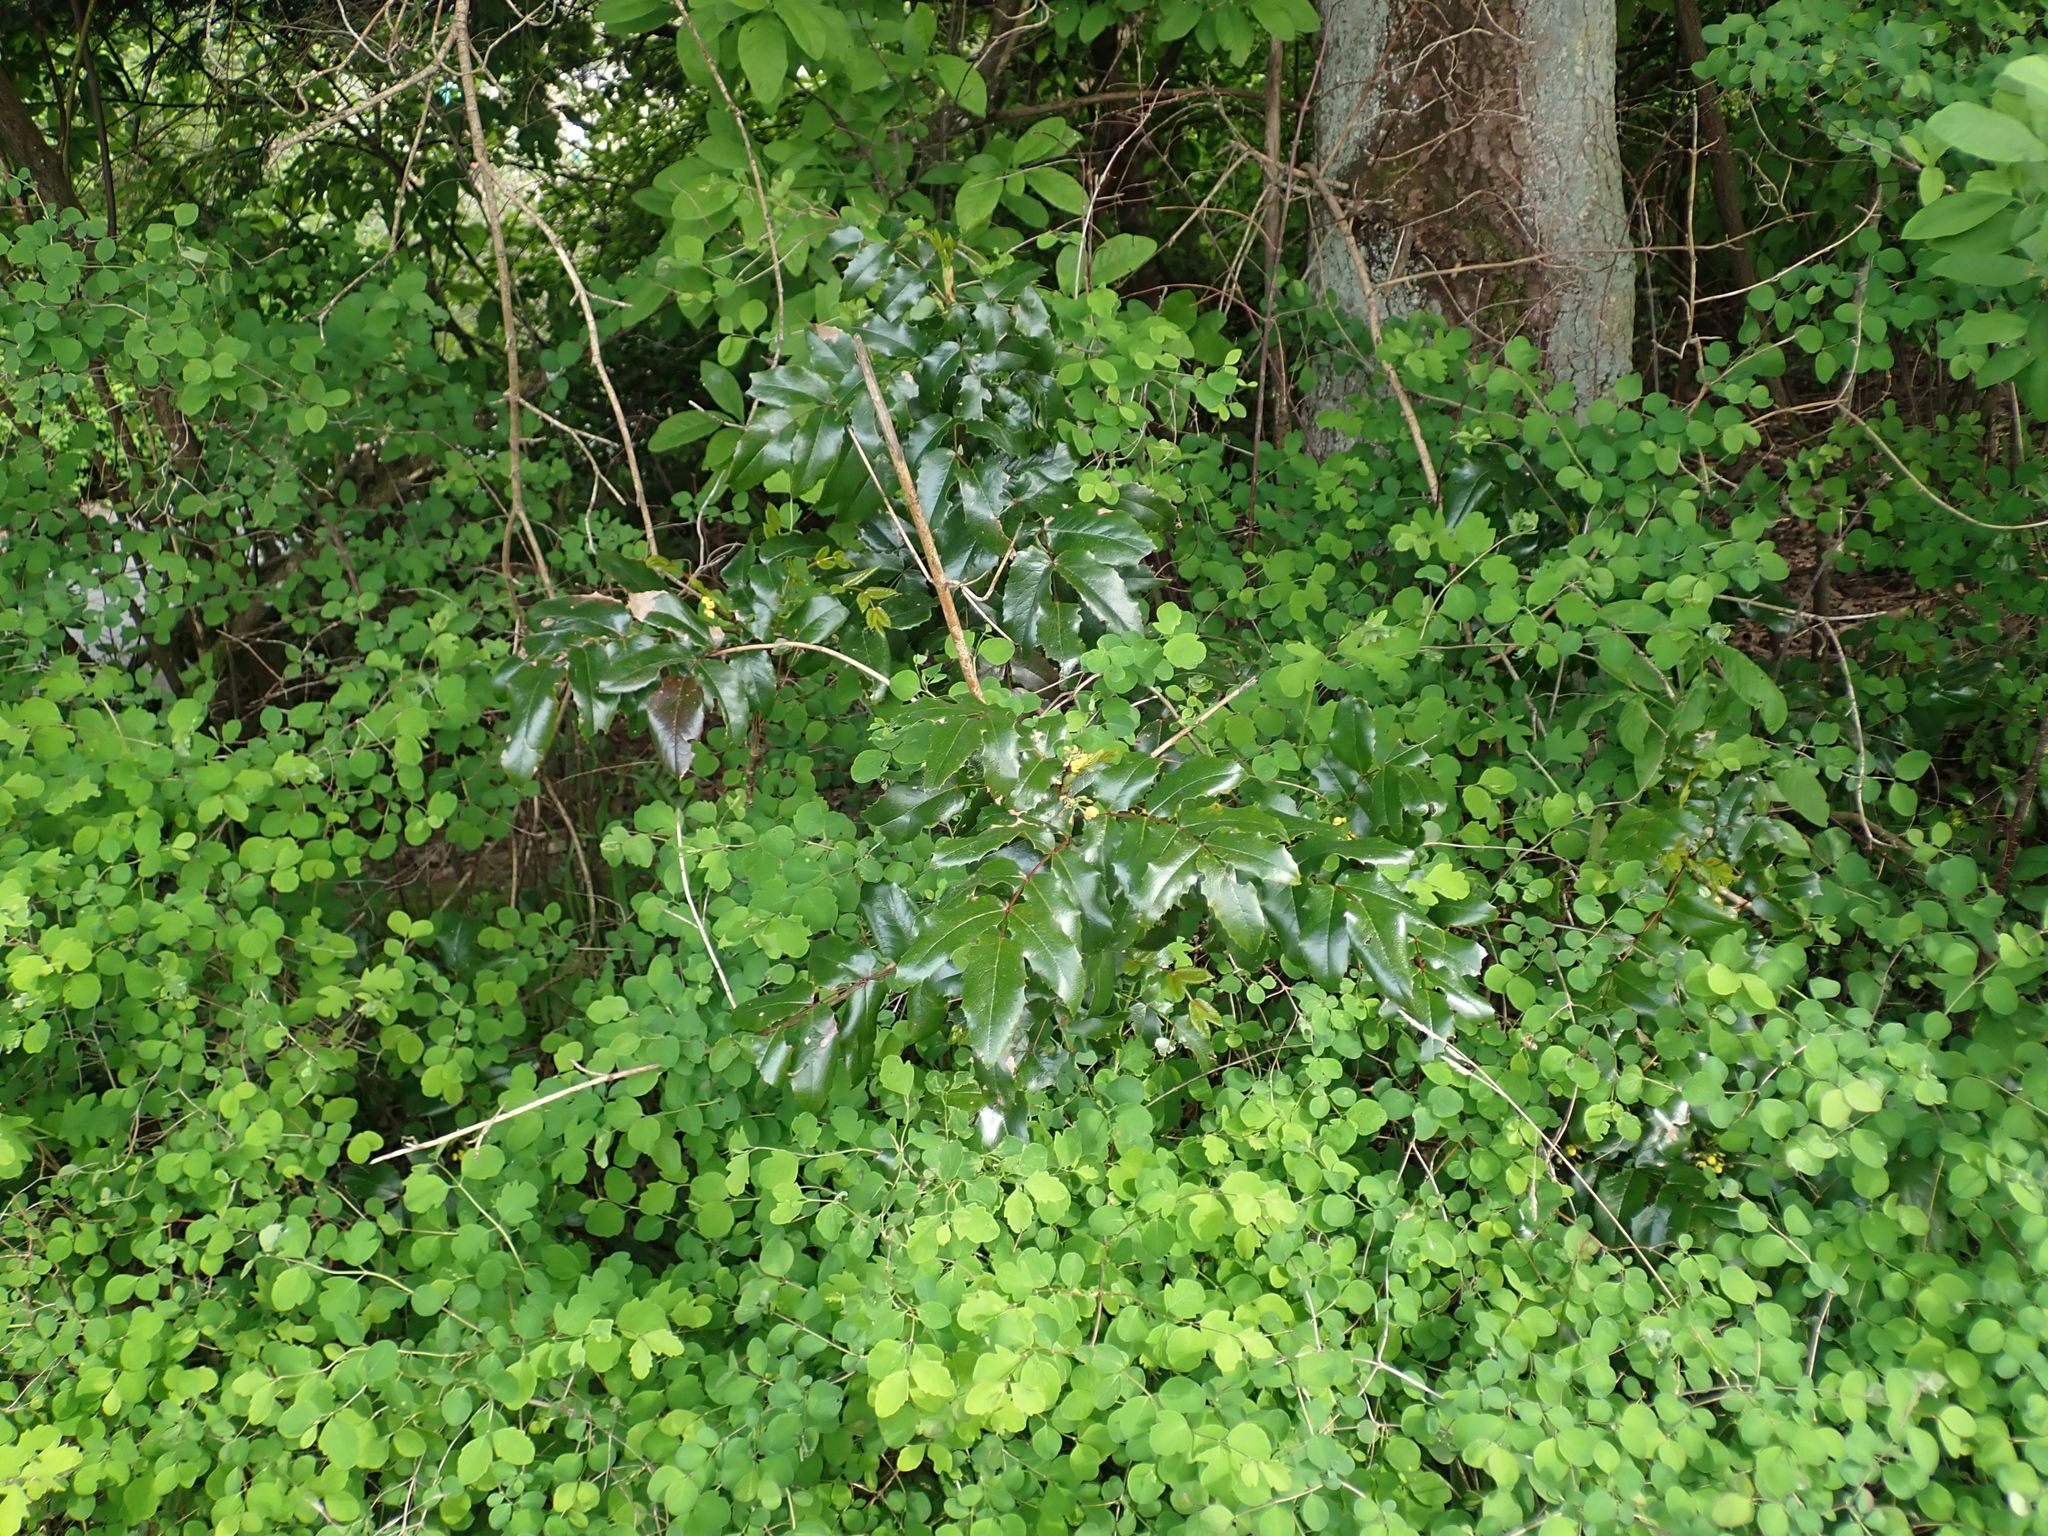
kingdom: Plantae
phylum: Tracheophyta
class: Magnoliopsida
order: Ranunculales
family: Berberidaceae
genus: Mahonia
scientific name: Mahonia aquifolium
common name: Oregon-grape
